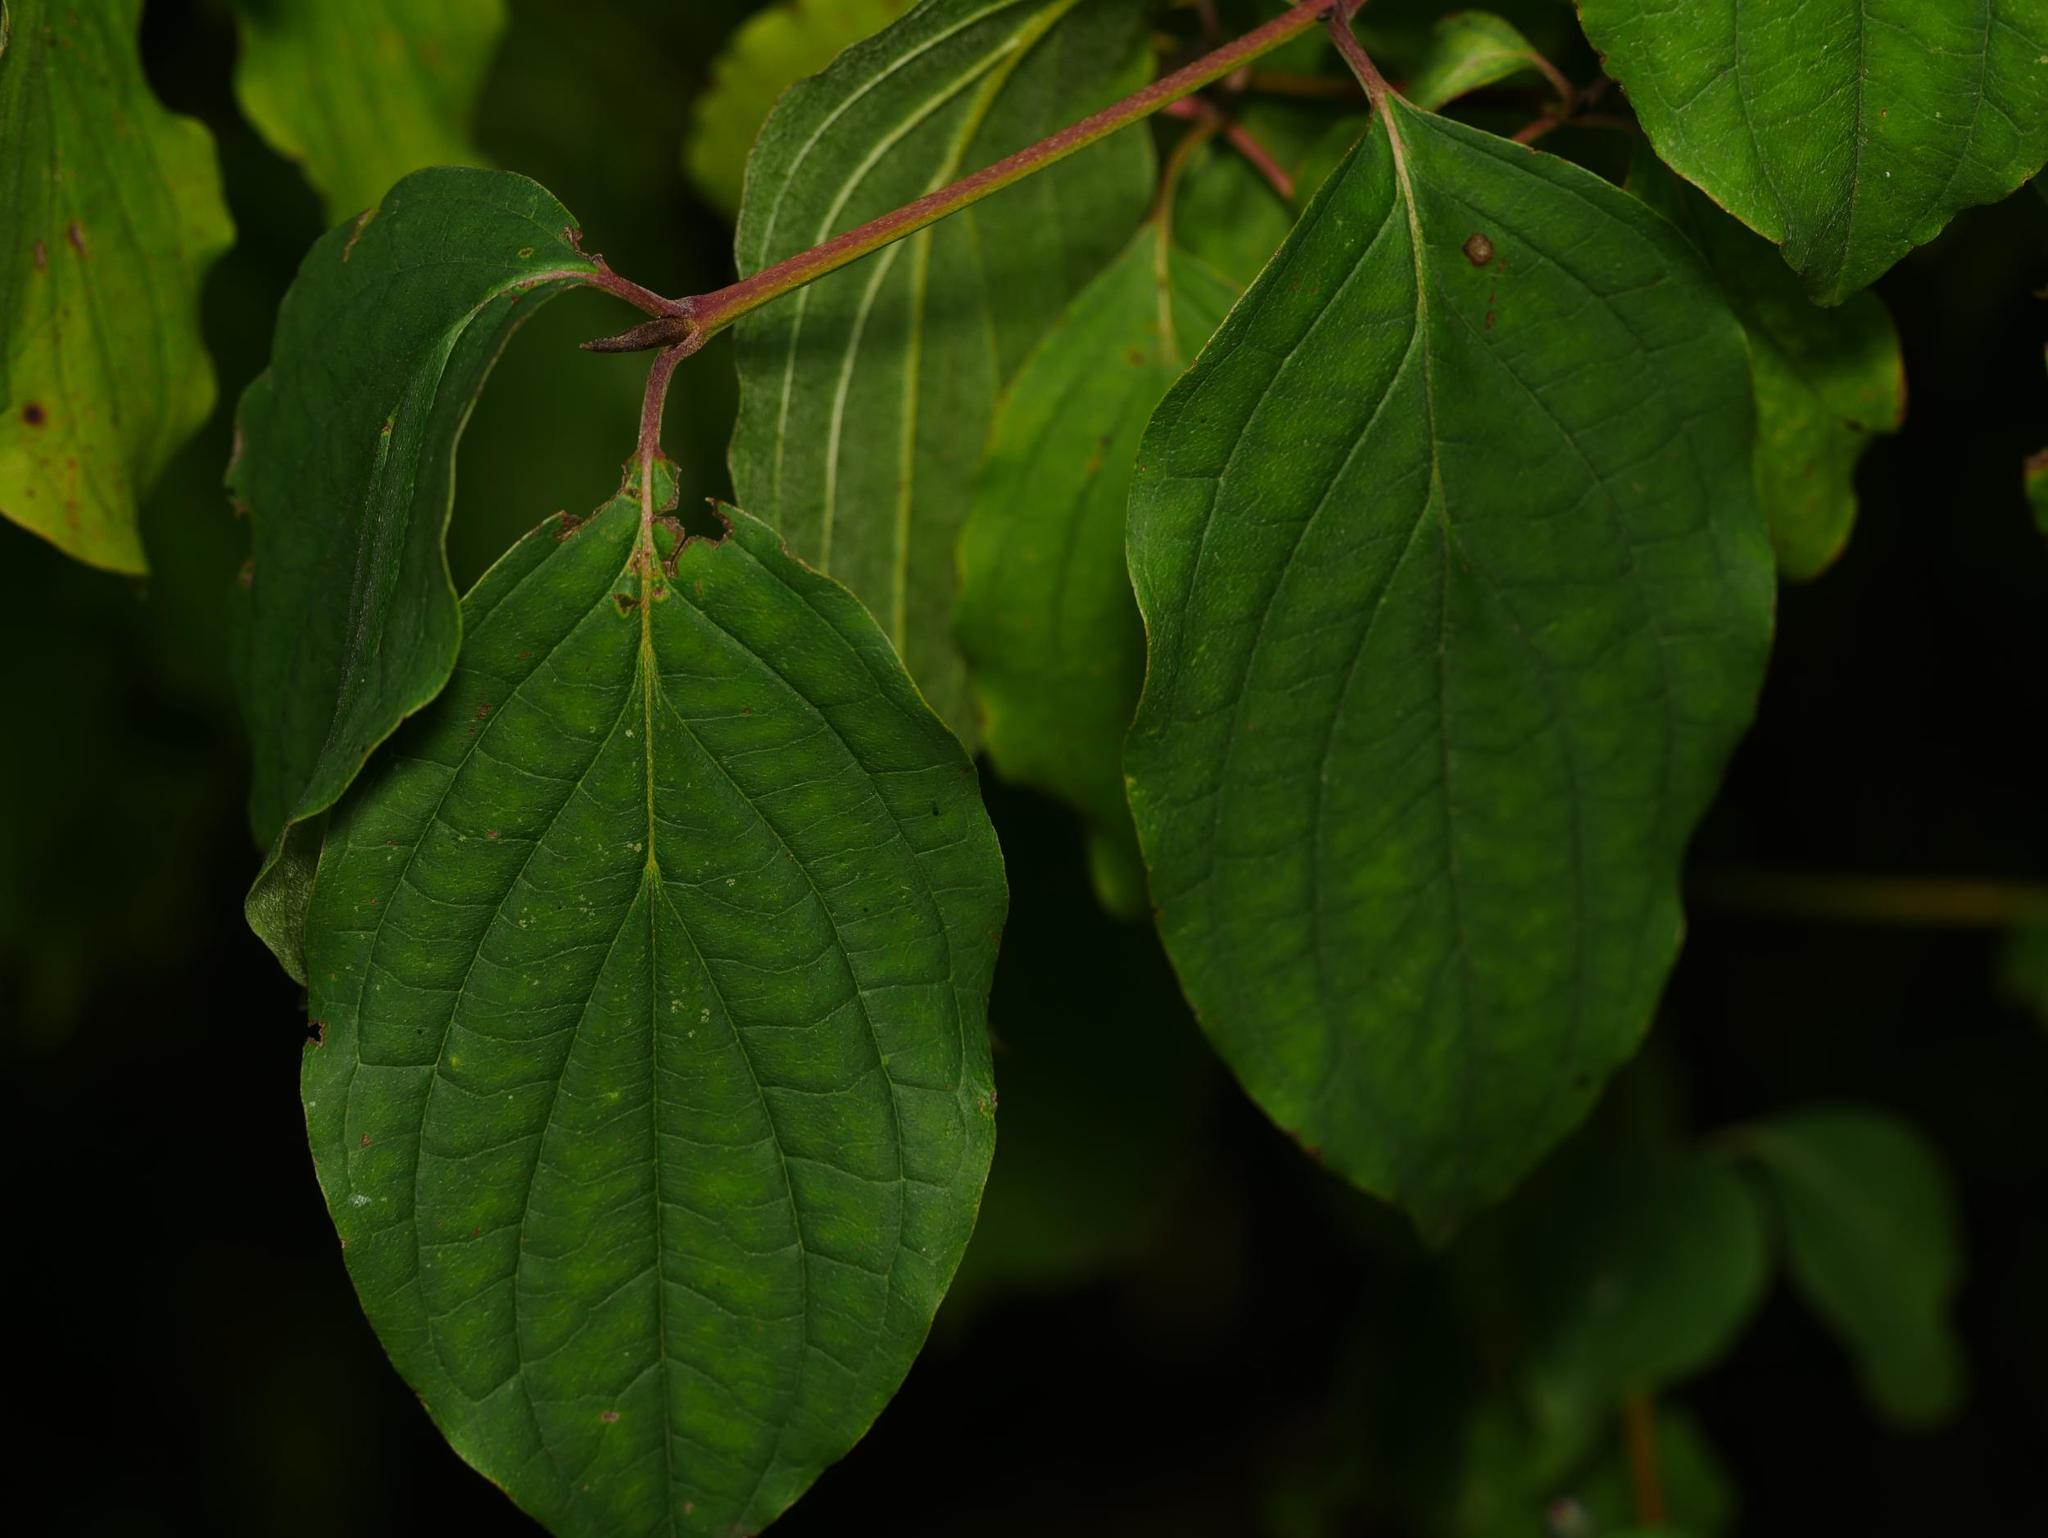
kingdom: Plantae
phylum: Tracheophyta
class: Magnoliopsida
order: Cornales
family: Cornaceae
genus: Cornus
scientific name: Cornus sanguinea
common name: Dogwood
